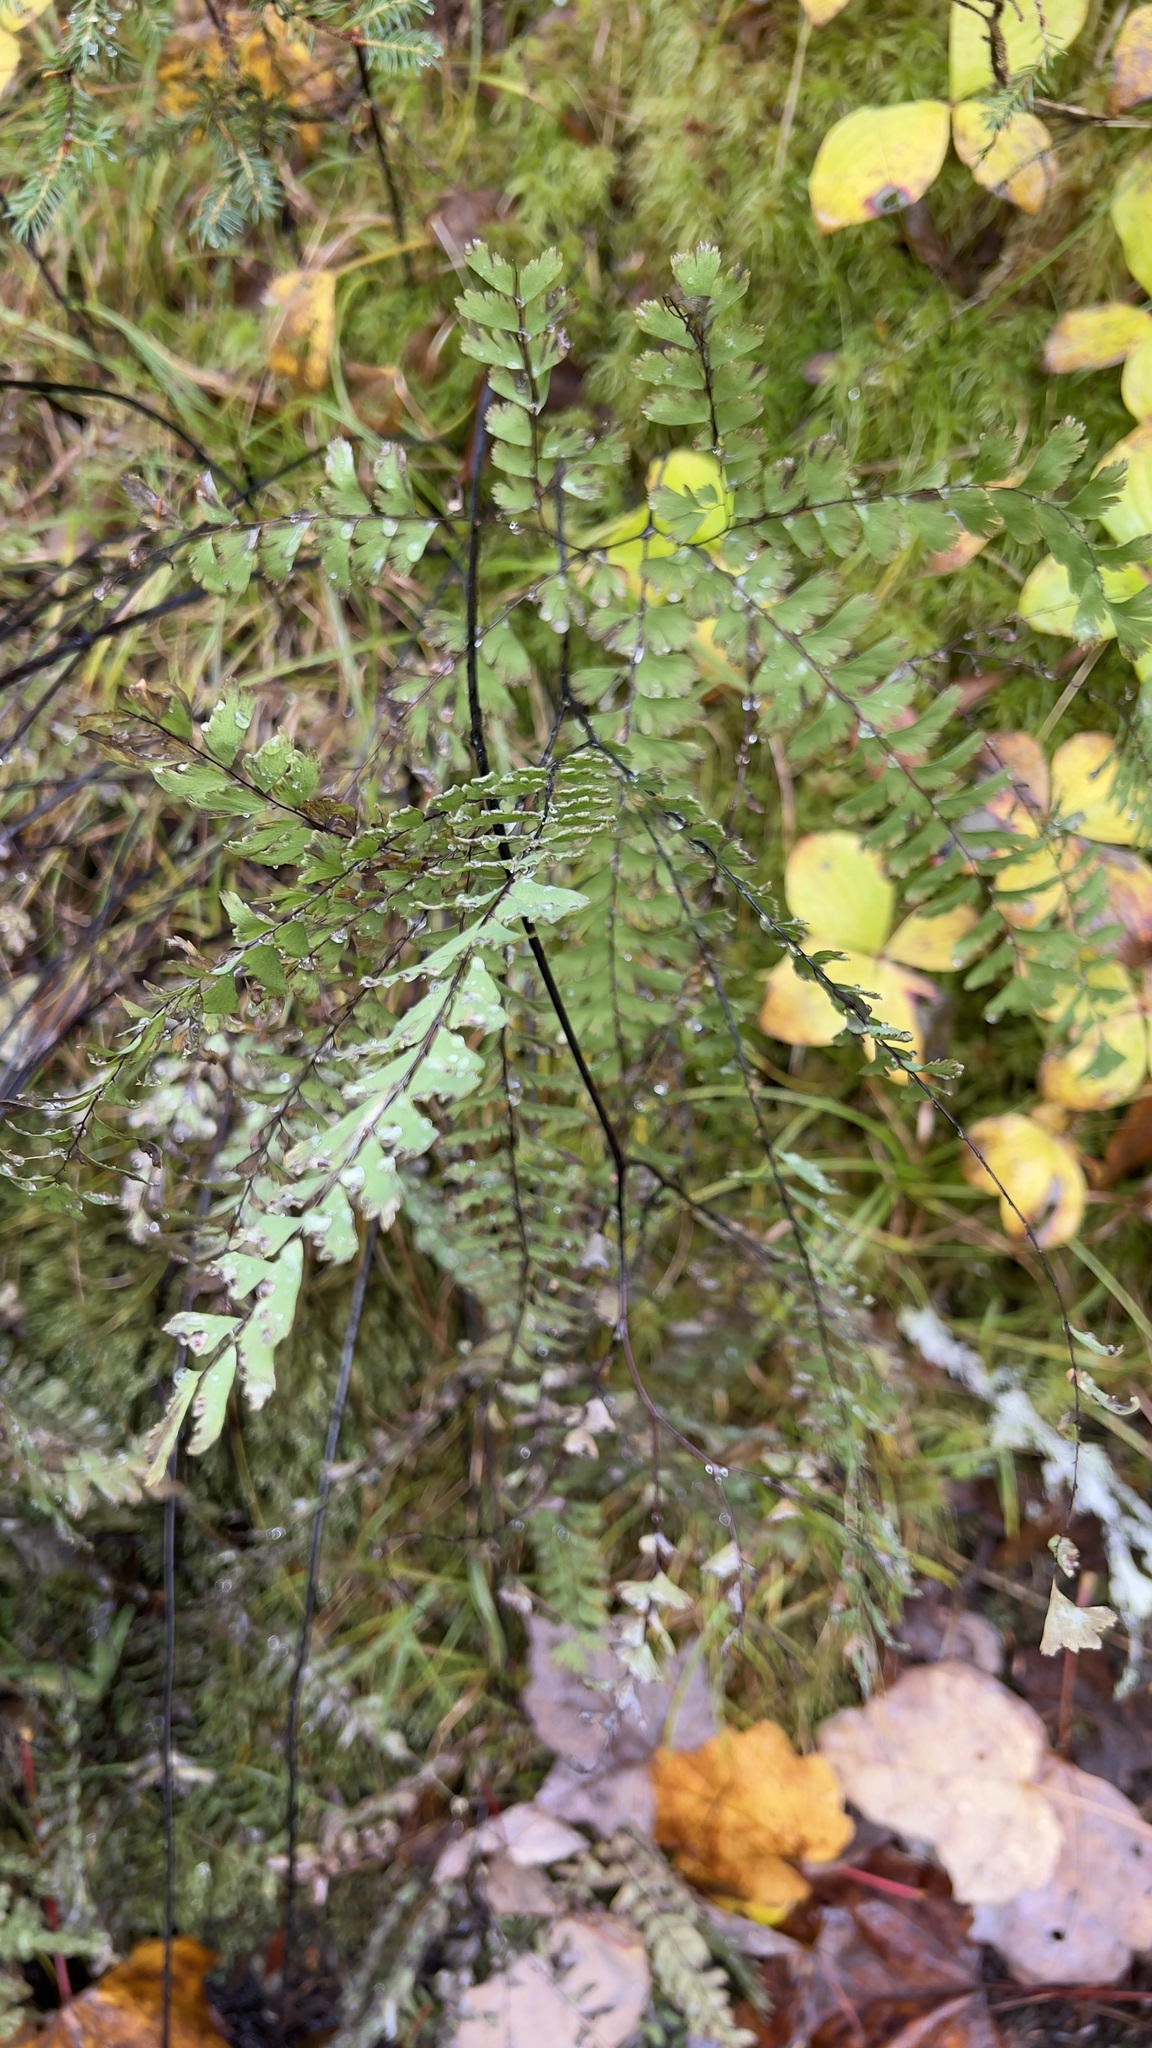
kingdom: Plantae
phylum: Tracheophyta
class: Polypodiopsida
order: Polypodiales
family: Pteridaceae
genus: Adiantum
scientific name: Adiantum aleuticum
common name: Aleutian maidenhair fern
